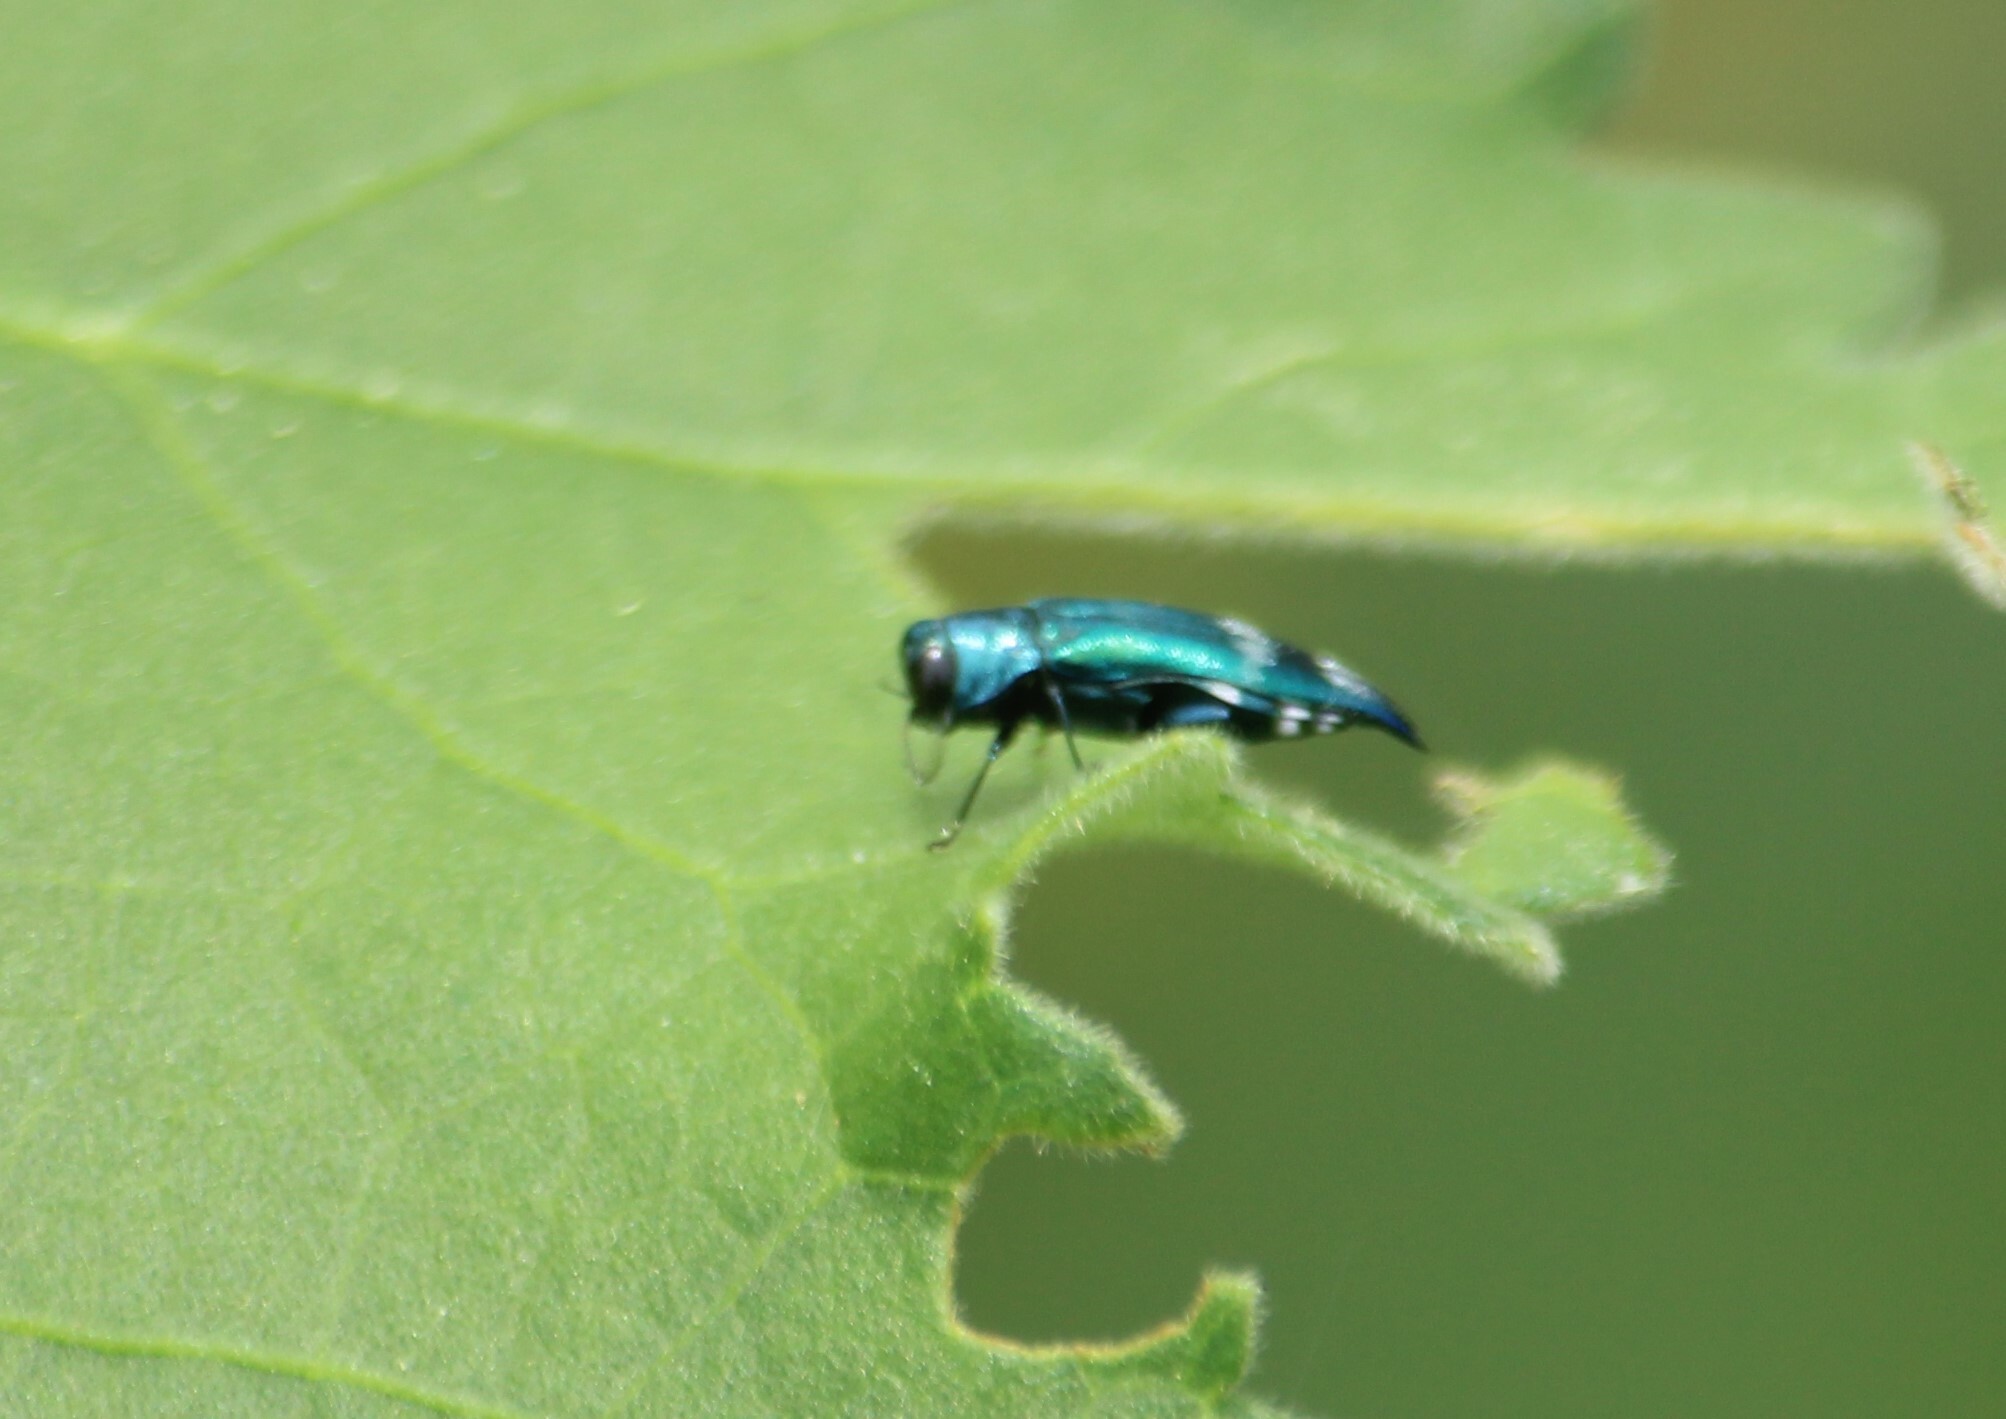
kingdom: Animalia
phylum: Arthropoda
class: Insecta
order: Coleoptera
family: Buprestidae
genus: Agrilus
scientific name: Agrilus acutus
